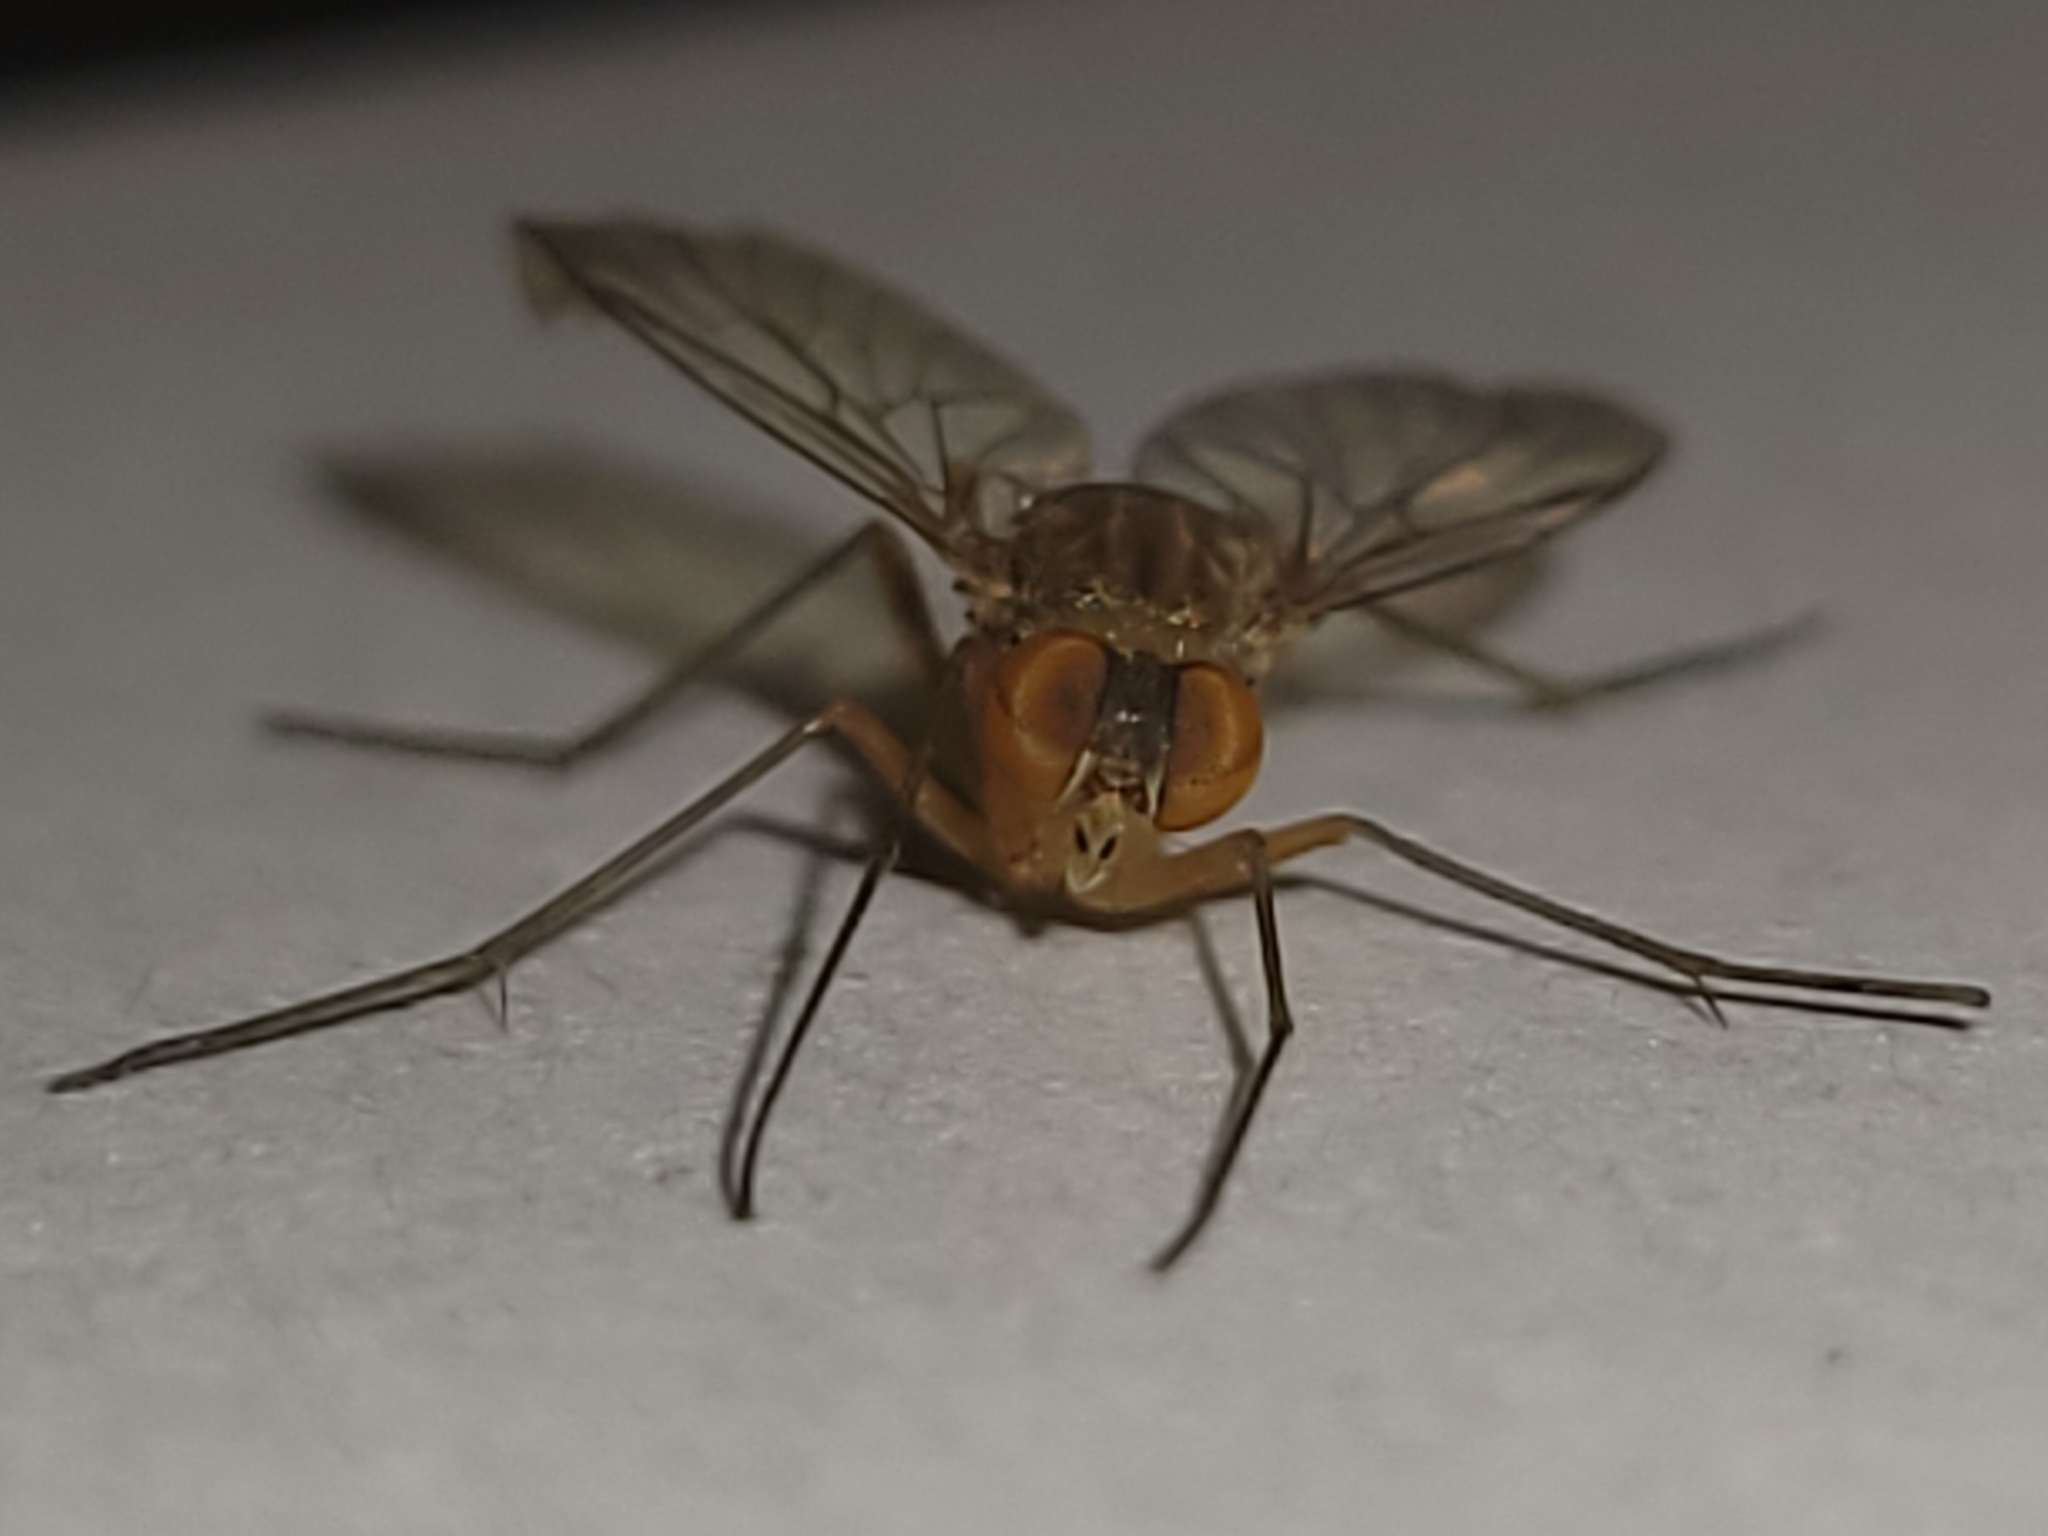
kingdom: Animalia
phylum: Arthropoda
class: Insecta
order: Diptera
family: Rhagionidae
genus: Chrysopilus
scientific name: Chrysopilus rotundipennis
